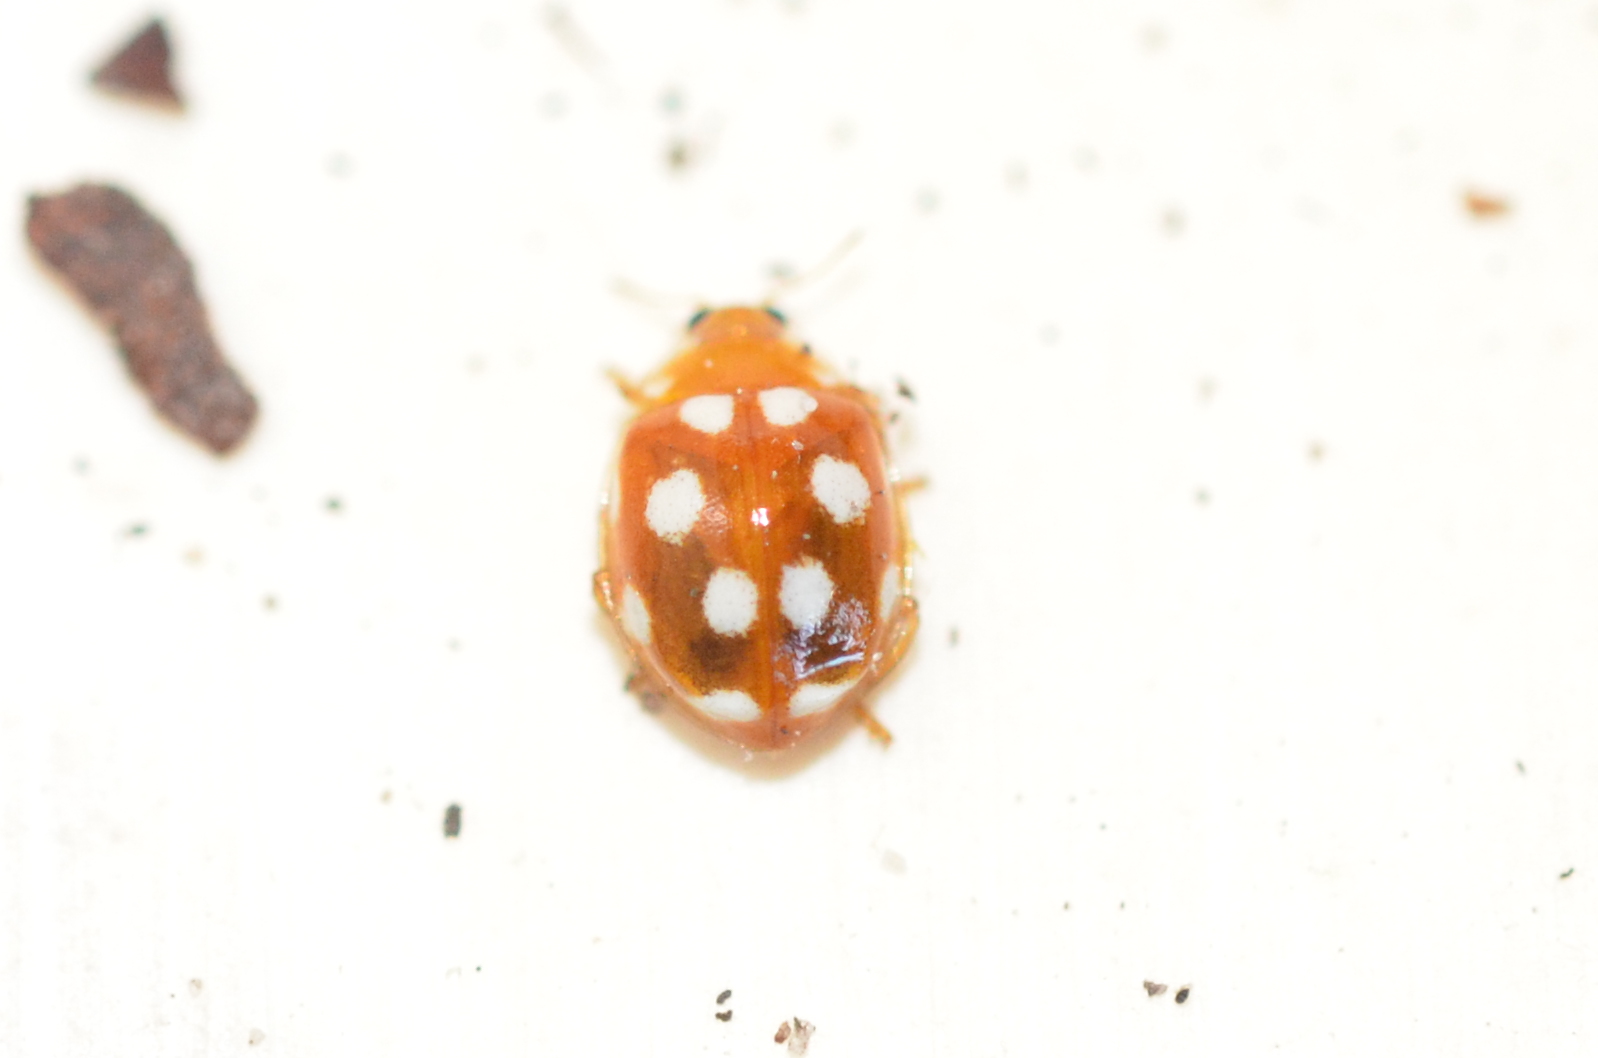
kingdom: Animalia
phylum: Arthropoda
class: Insecta
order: Coleoptera
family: Coccinellidae
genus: Vibidia
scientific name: Vibidia duodecimguttata
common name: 12-spot ladybird
